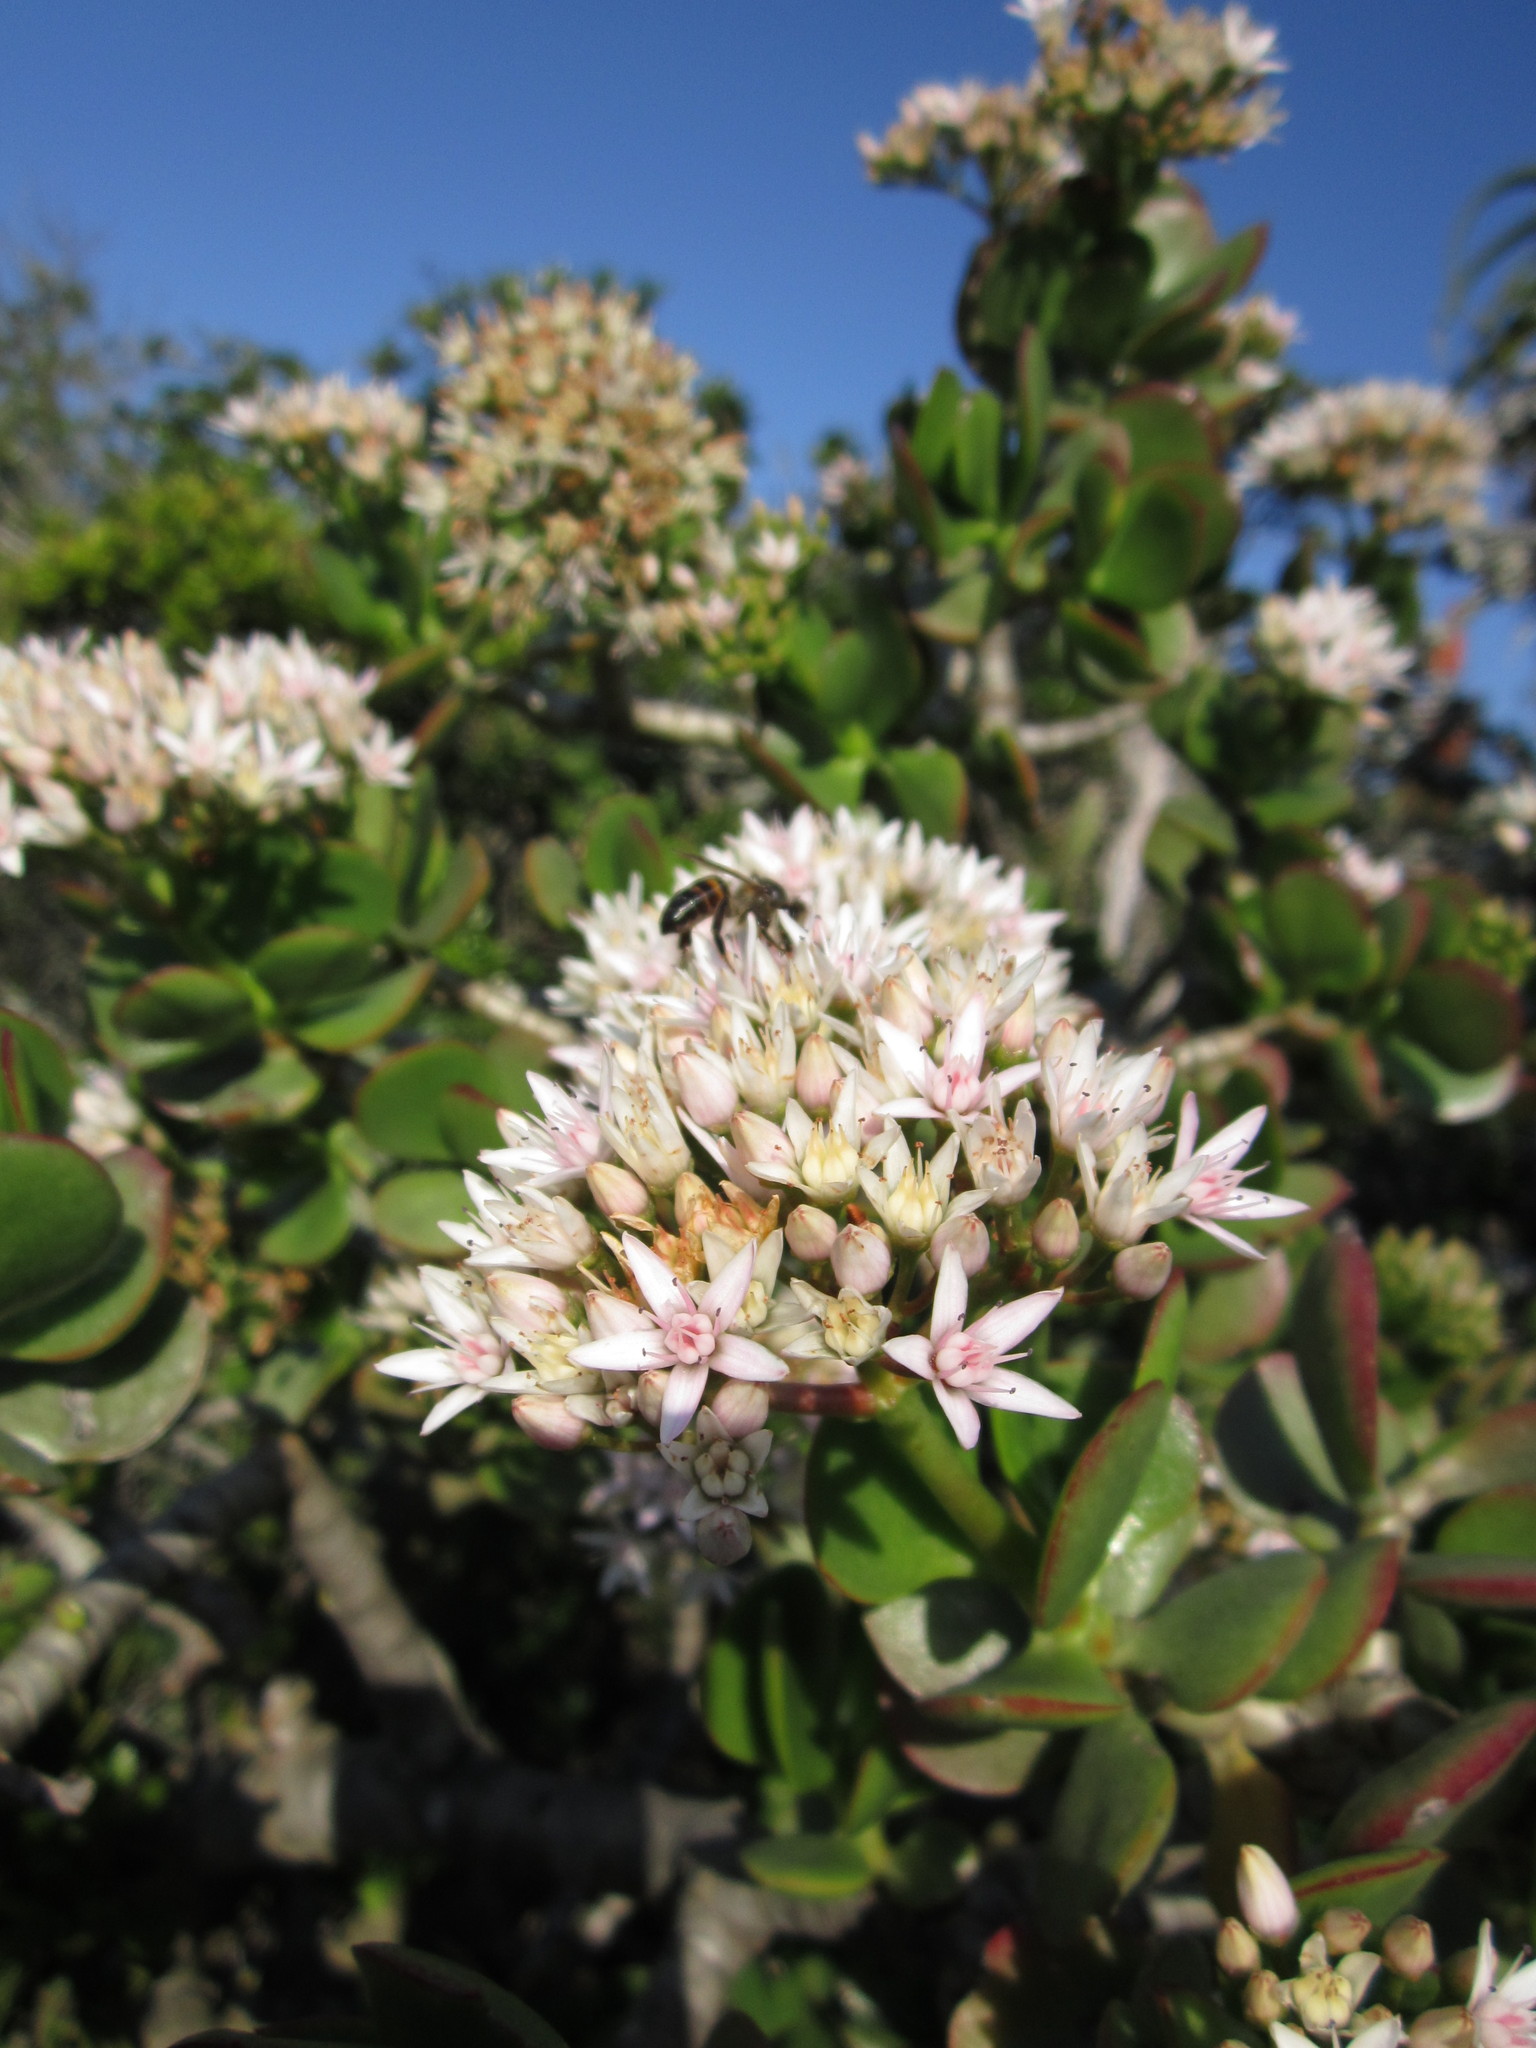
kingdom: Plantae
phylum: Tracheophyta
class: Magnoliopsida
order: Saxifragales
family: Crassulaceae
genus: Crassula
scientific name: Crassula ovata
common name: Jade plant
